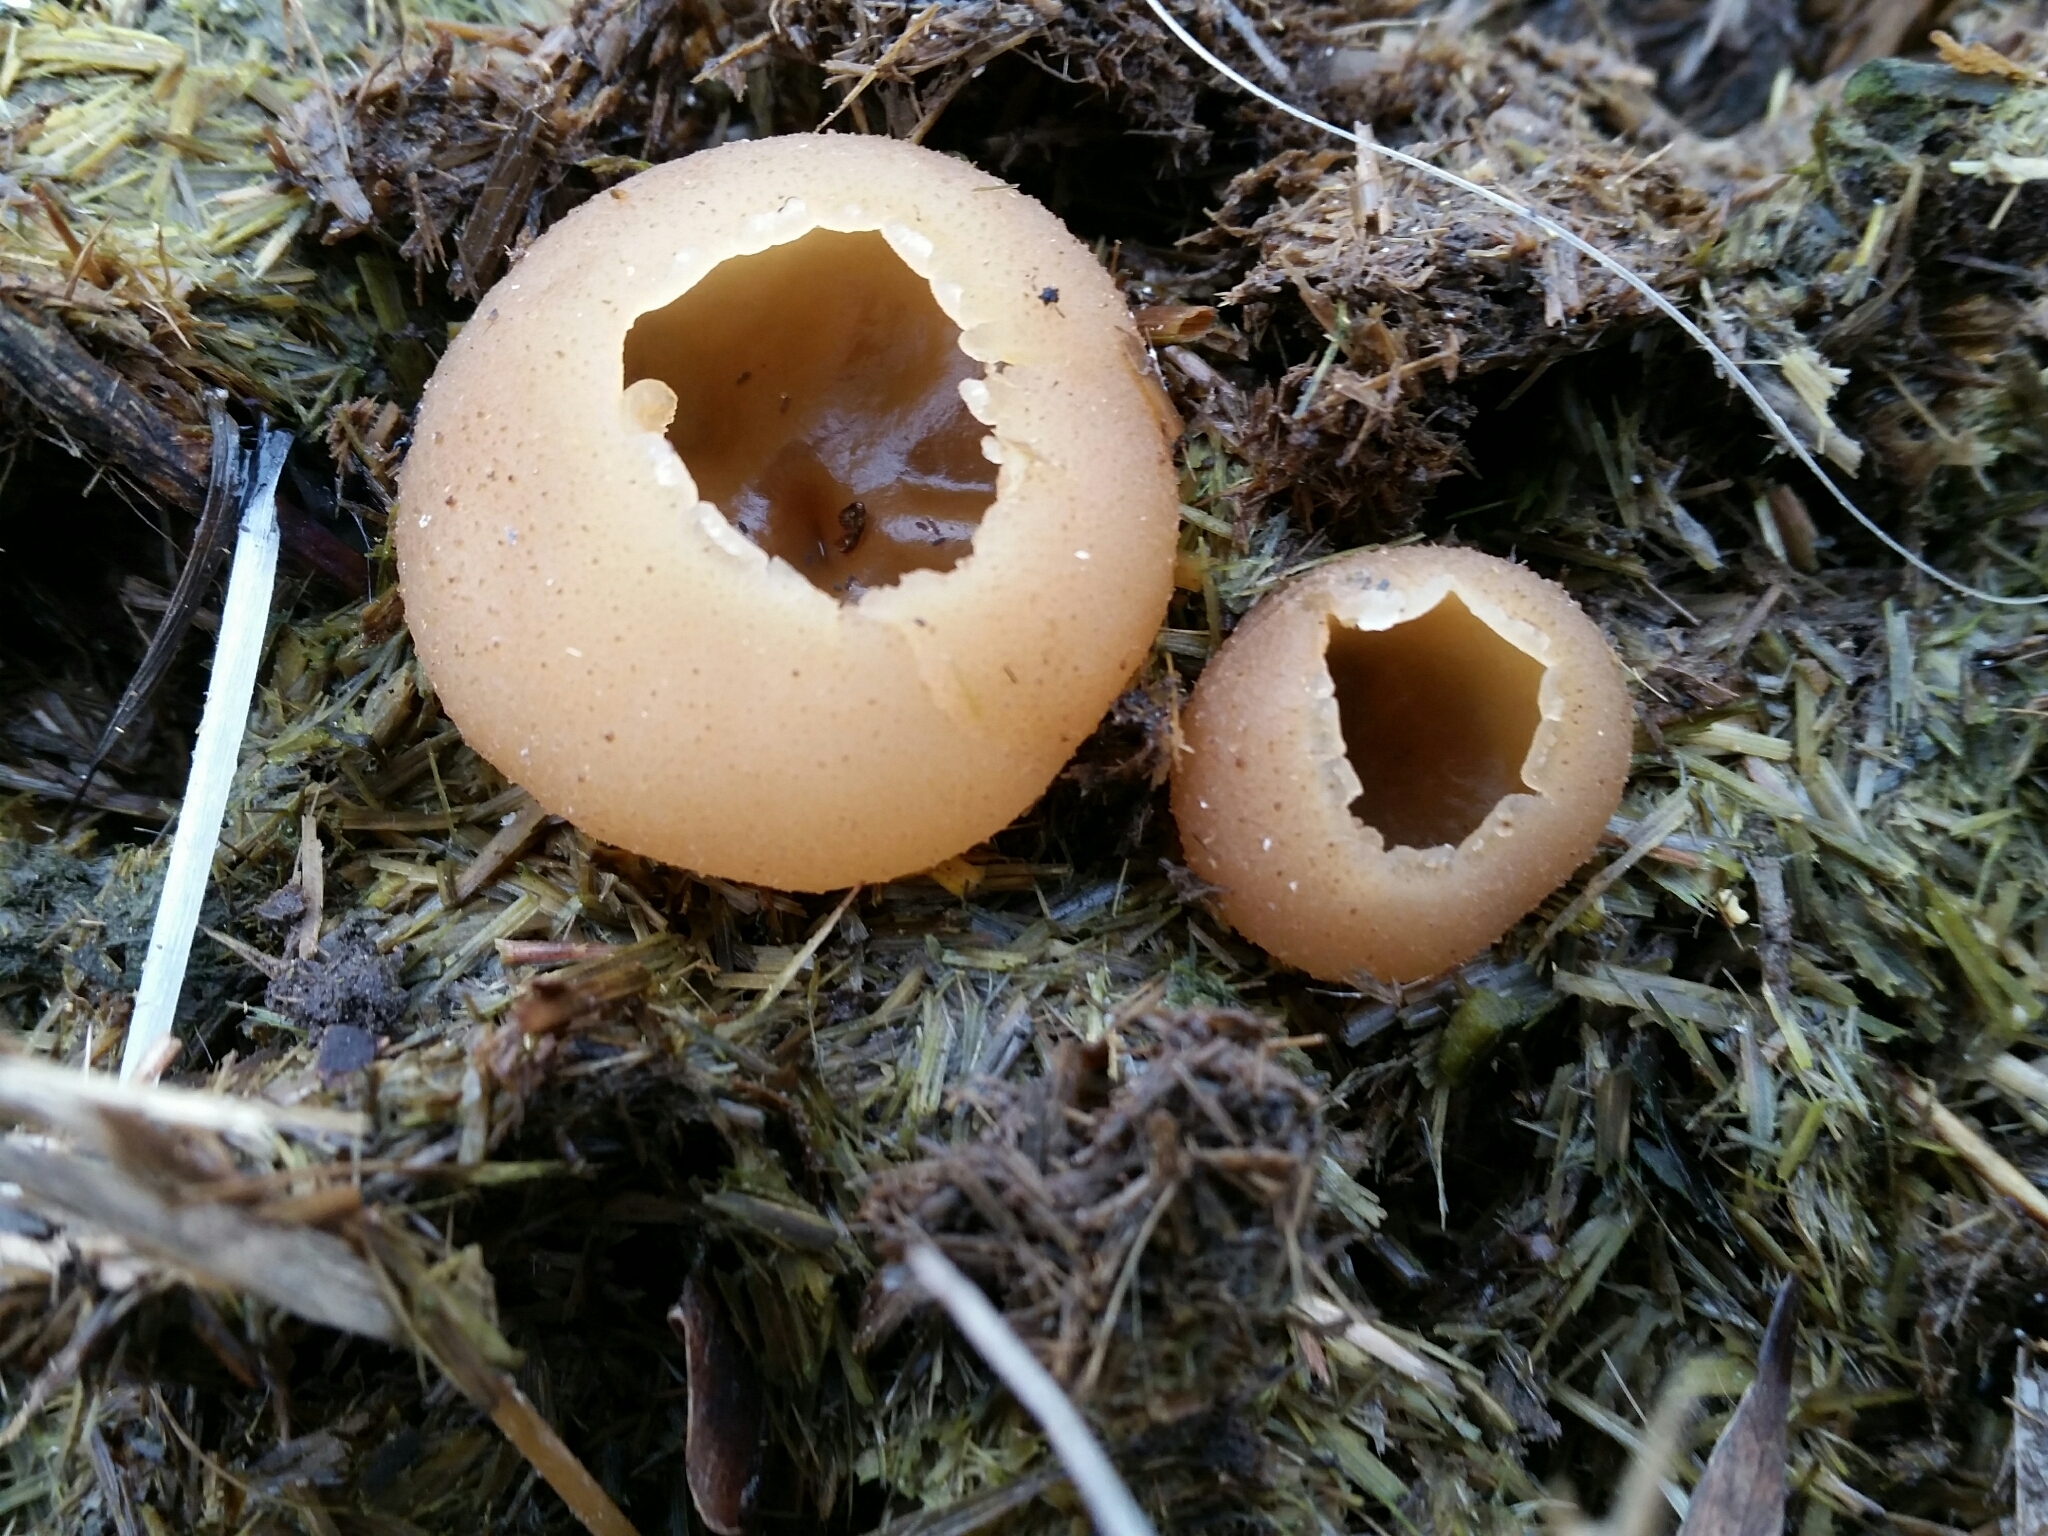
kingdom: Fungi
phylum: Ascomycota
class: Pezizomycetes
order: Pezizales
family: Pezizaceae
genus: Peziza
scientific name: Peziza vesiculosa
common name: Blistered cup
